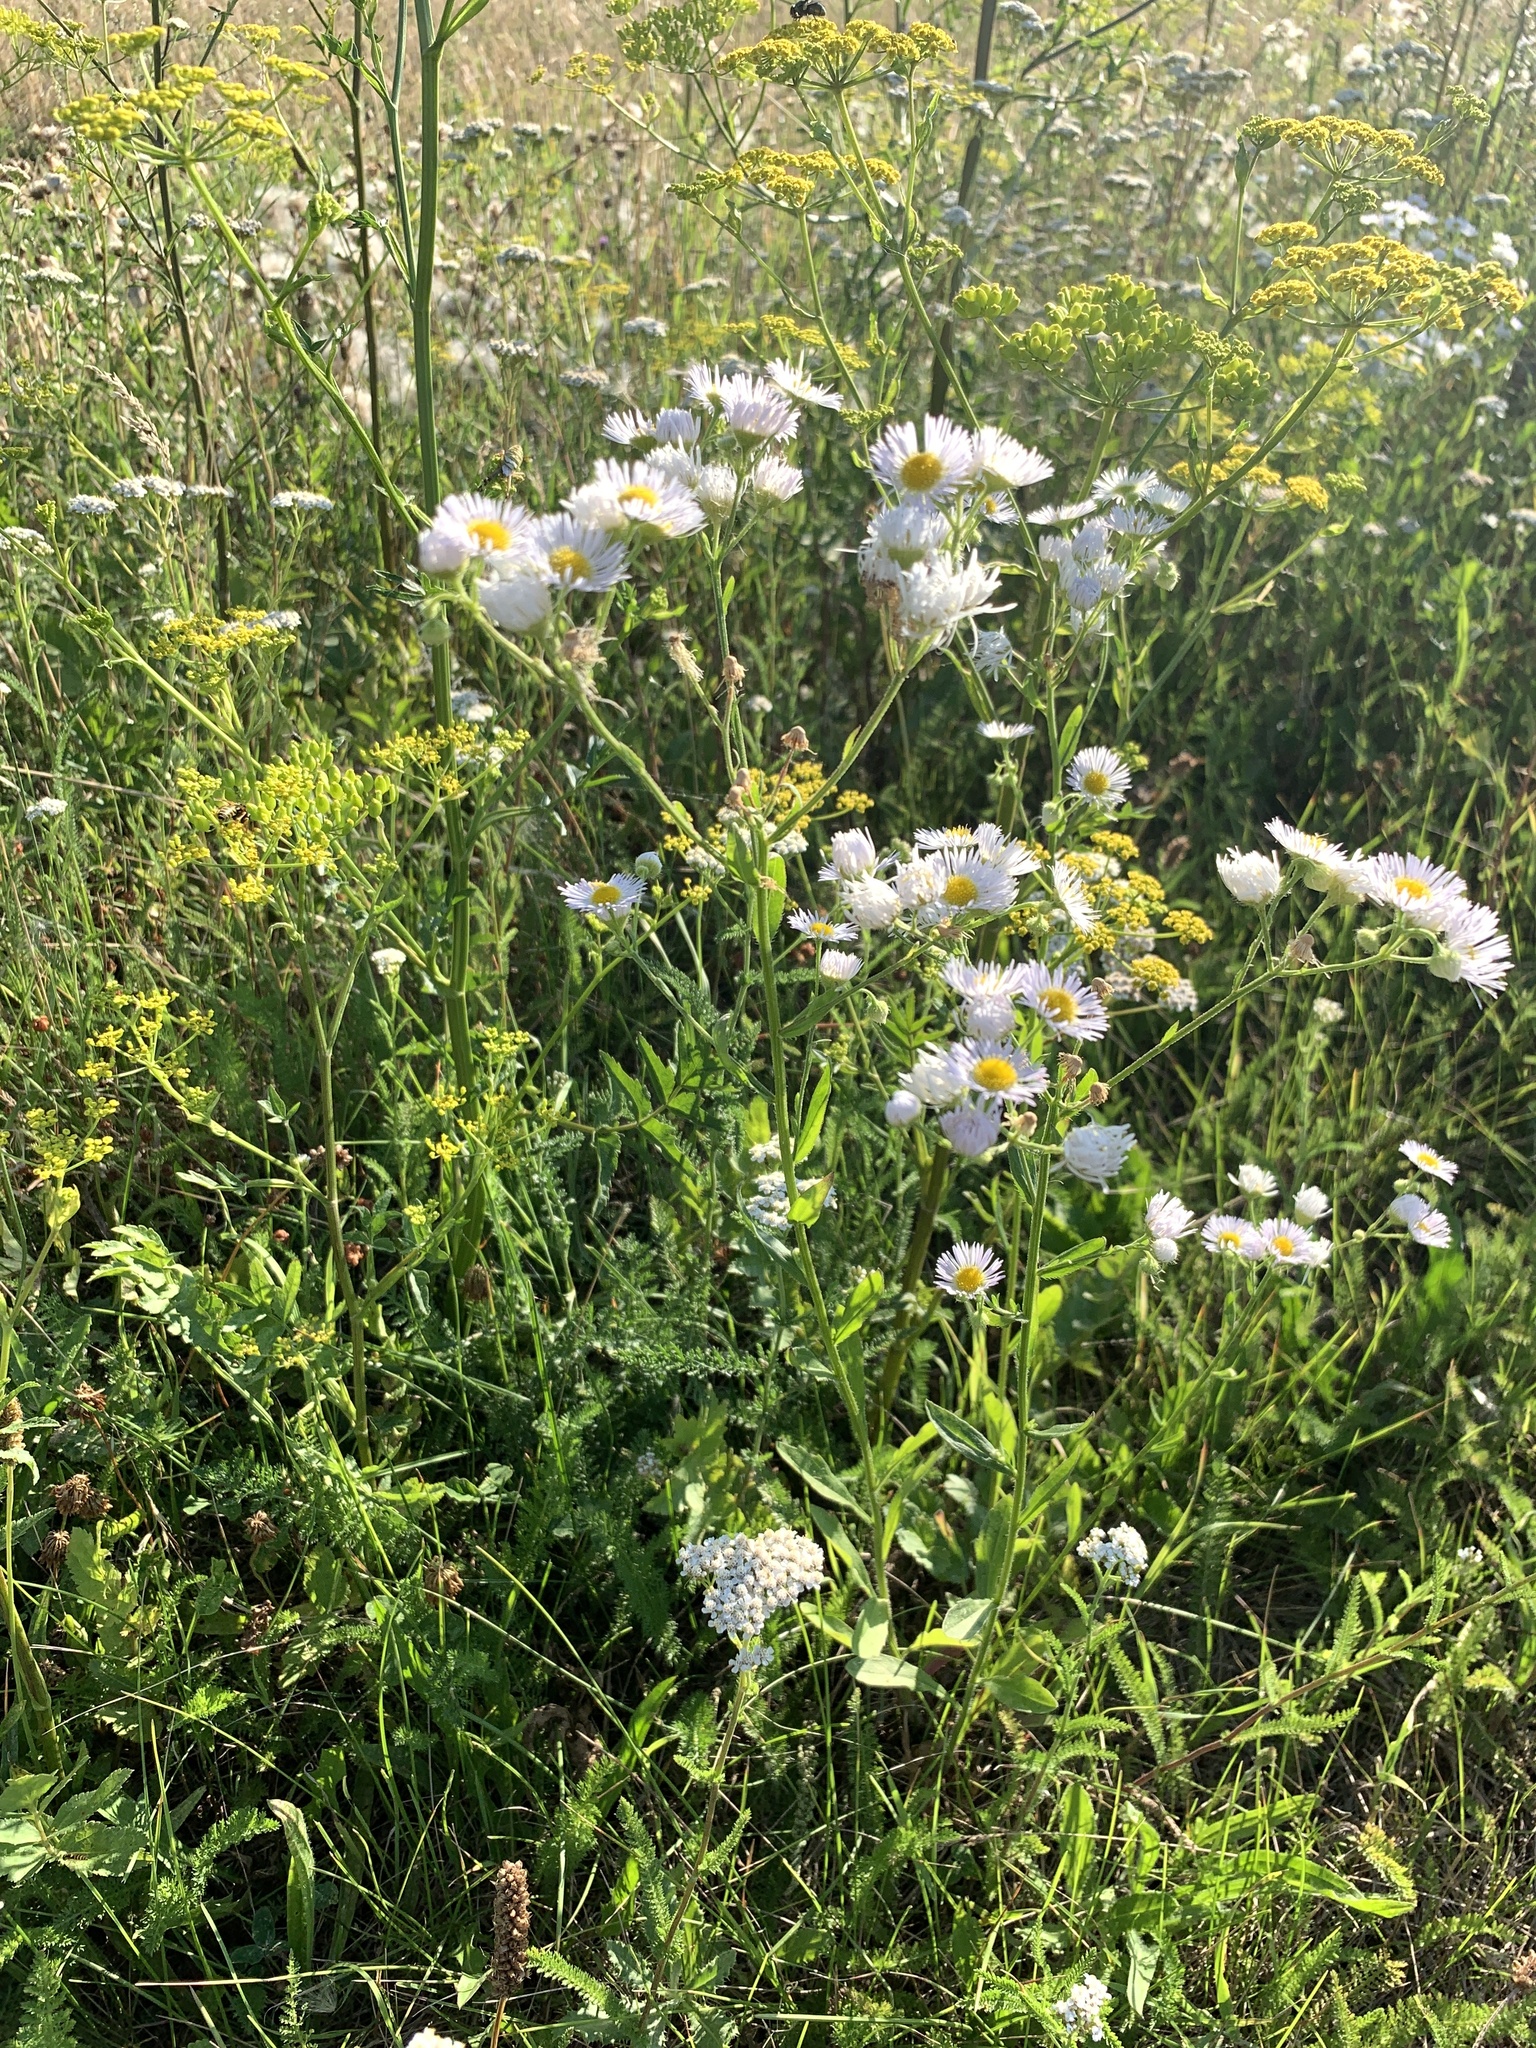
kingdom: Plantae
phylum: Tracheophyta
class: Magnoliopsida
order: Asterales
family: Asteraceae
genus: Erigeron
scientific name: Erigeron annuus
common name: Tall fleabane
